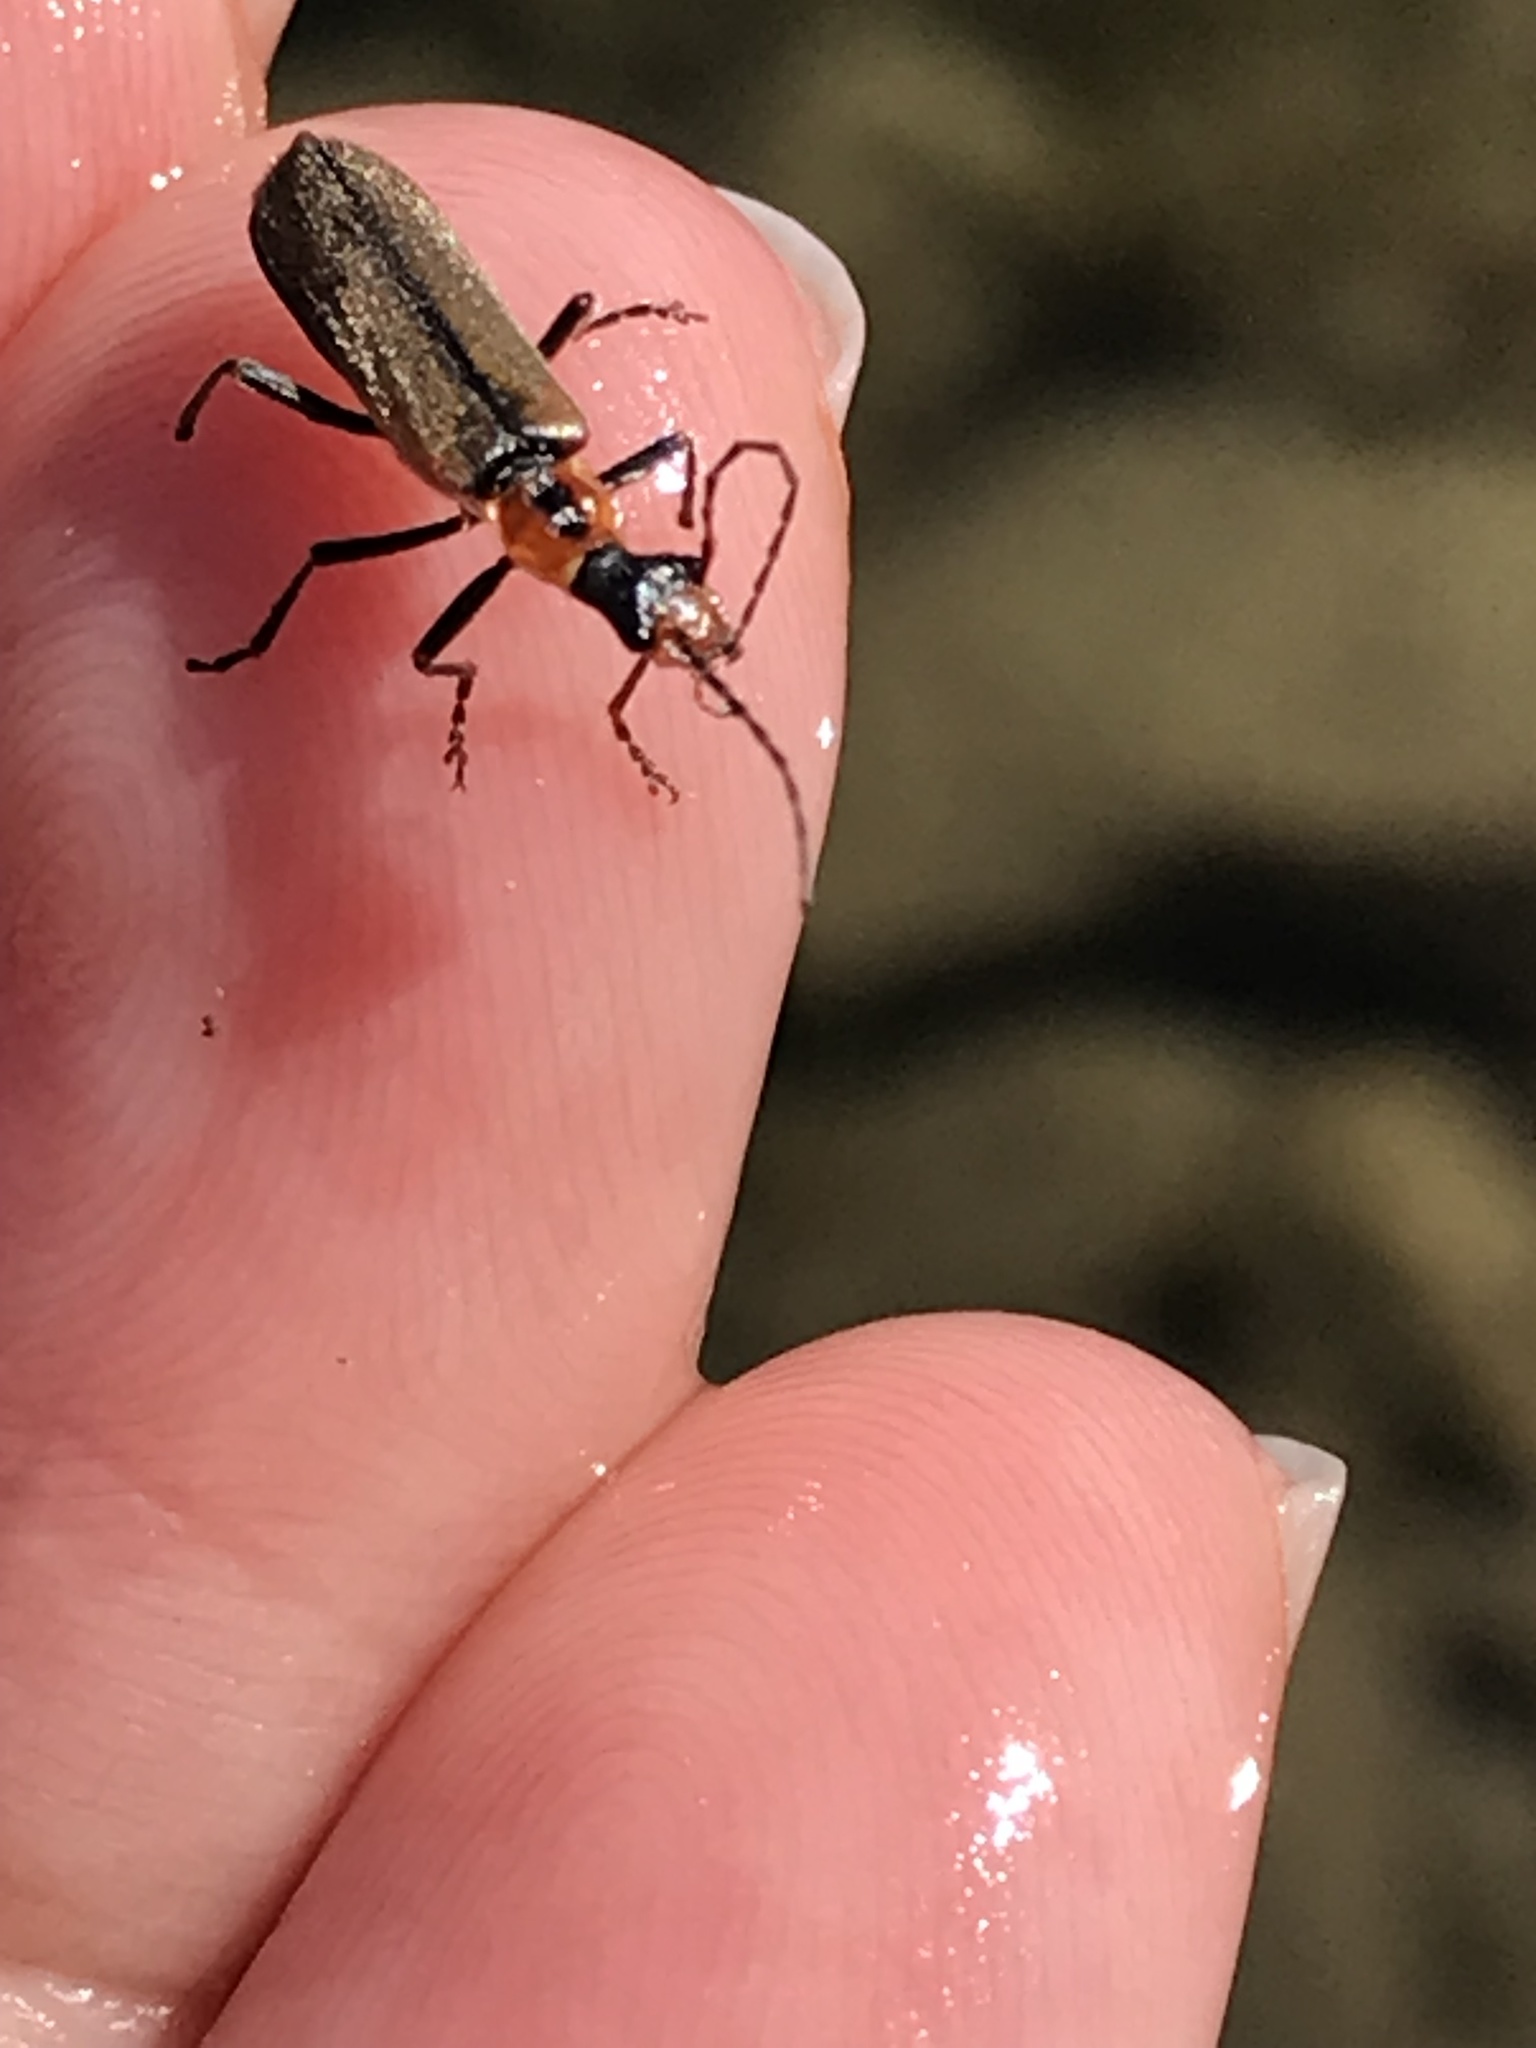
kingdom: Animalia
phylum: Arthropoda
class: Insecta
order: Coleoptera
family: Cantharidae
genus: Dichelotarsus
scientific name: Dichelotarsus cavicollis
